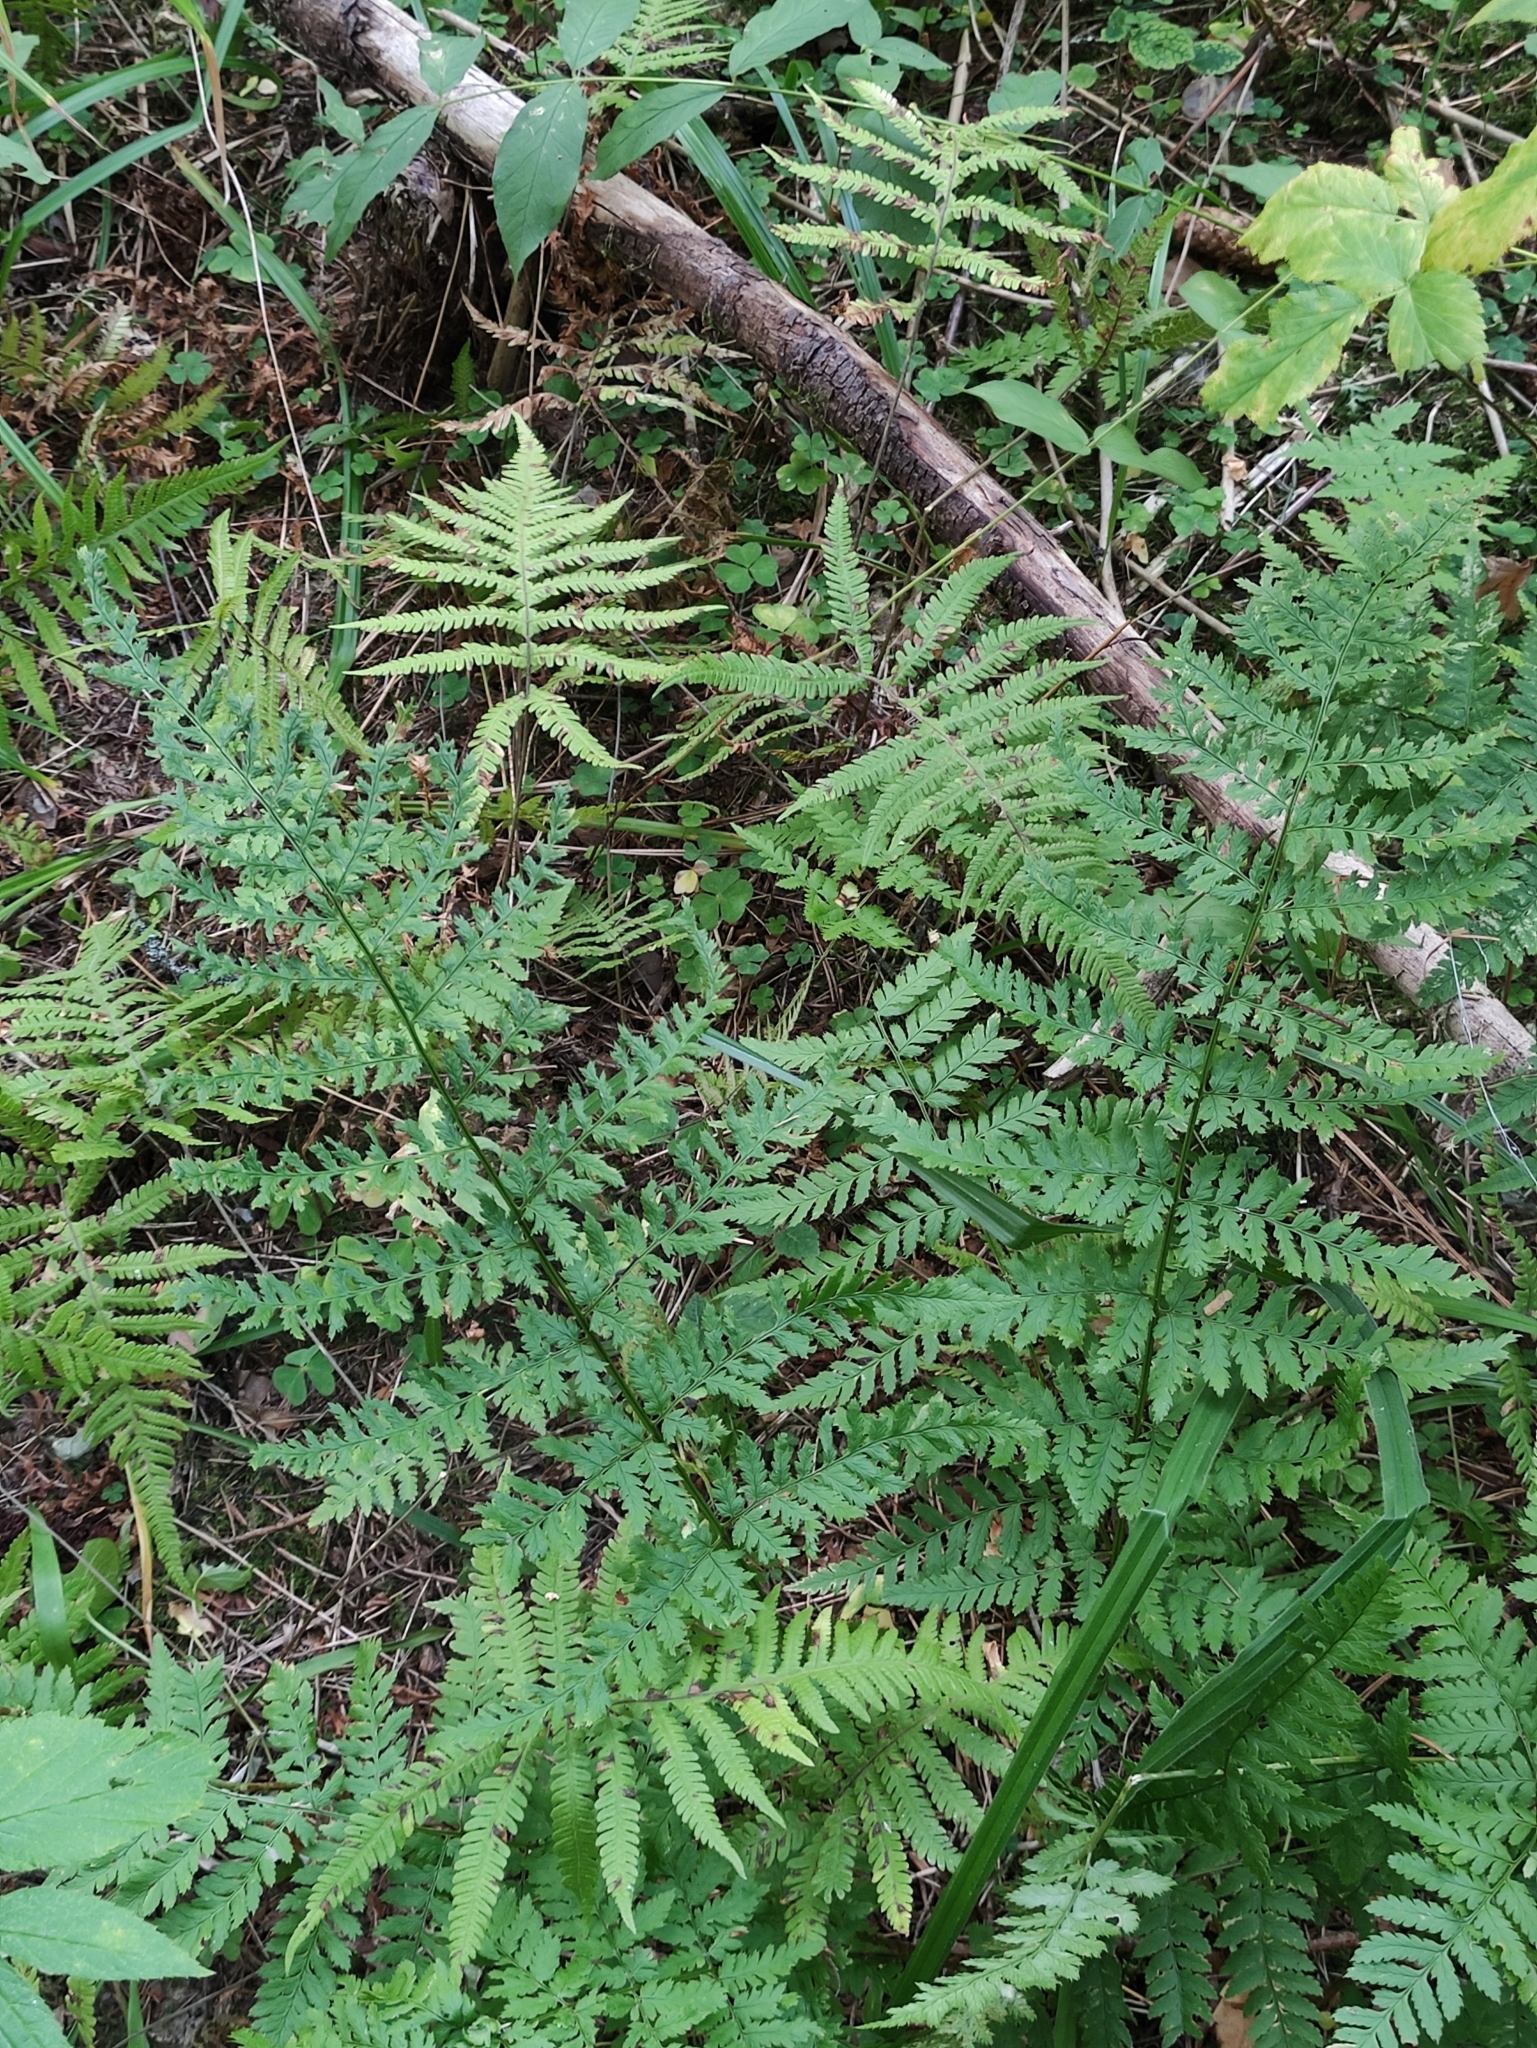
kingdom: Plantae
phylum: Tracheophyta
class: Polypodiopsida
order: Polypodiales
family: Dryopteridaceae
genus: Dryopteris
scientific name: Dryopteris carthusiana
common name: Narrow buckler-fern
